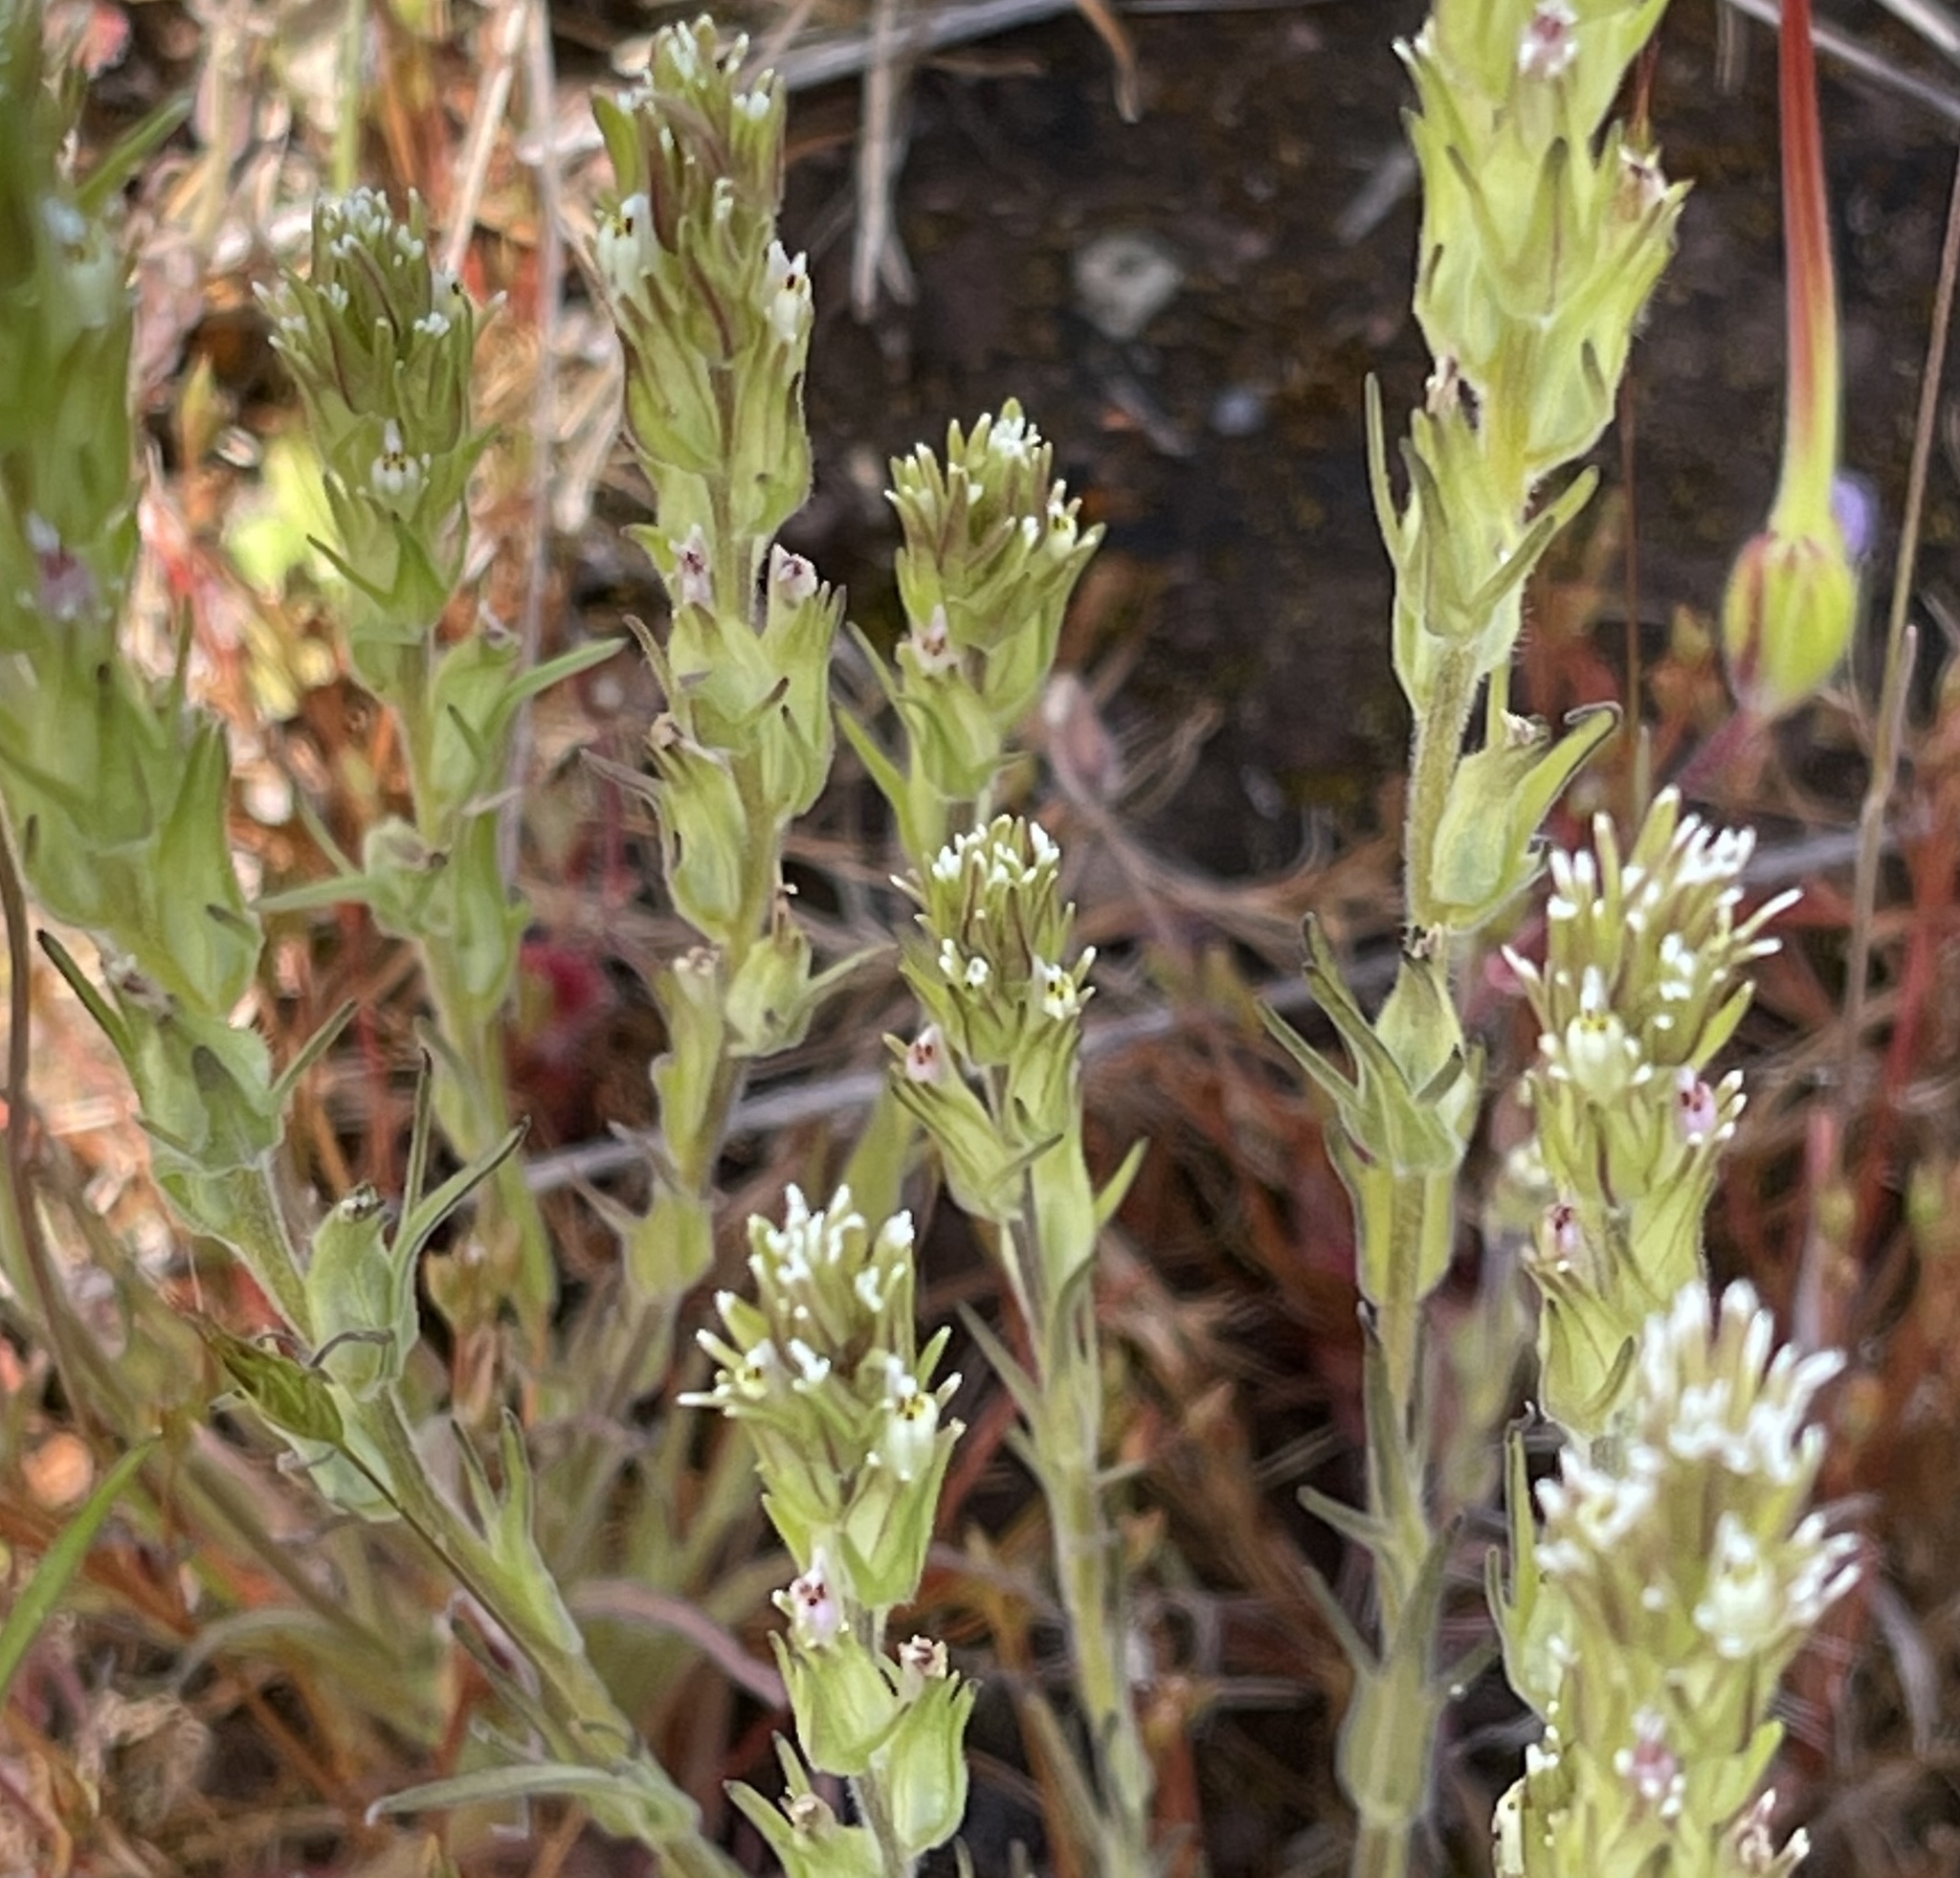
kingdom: Plantae
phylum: Tracheophyta
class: Magnoliopsida
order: Lamiales
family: Orobanchaceae
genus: Castilleja
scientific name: Castilleja attenuata
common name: Valley tassels
